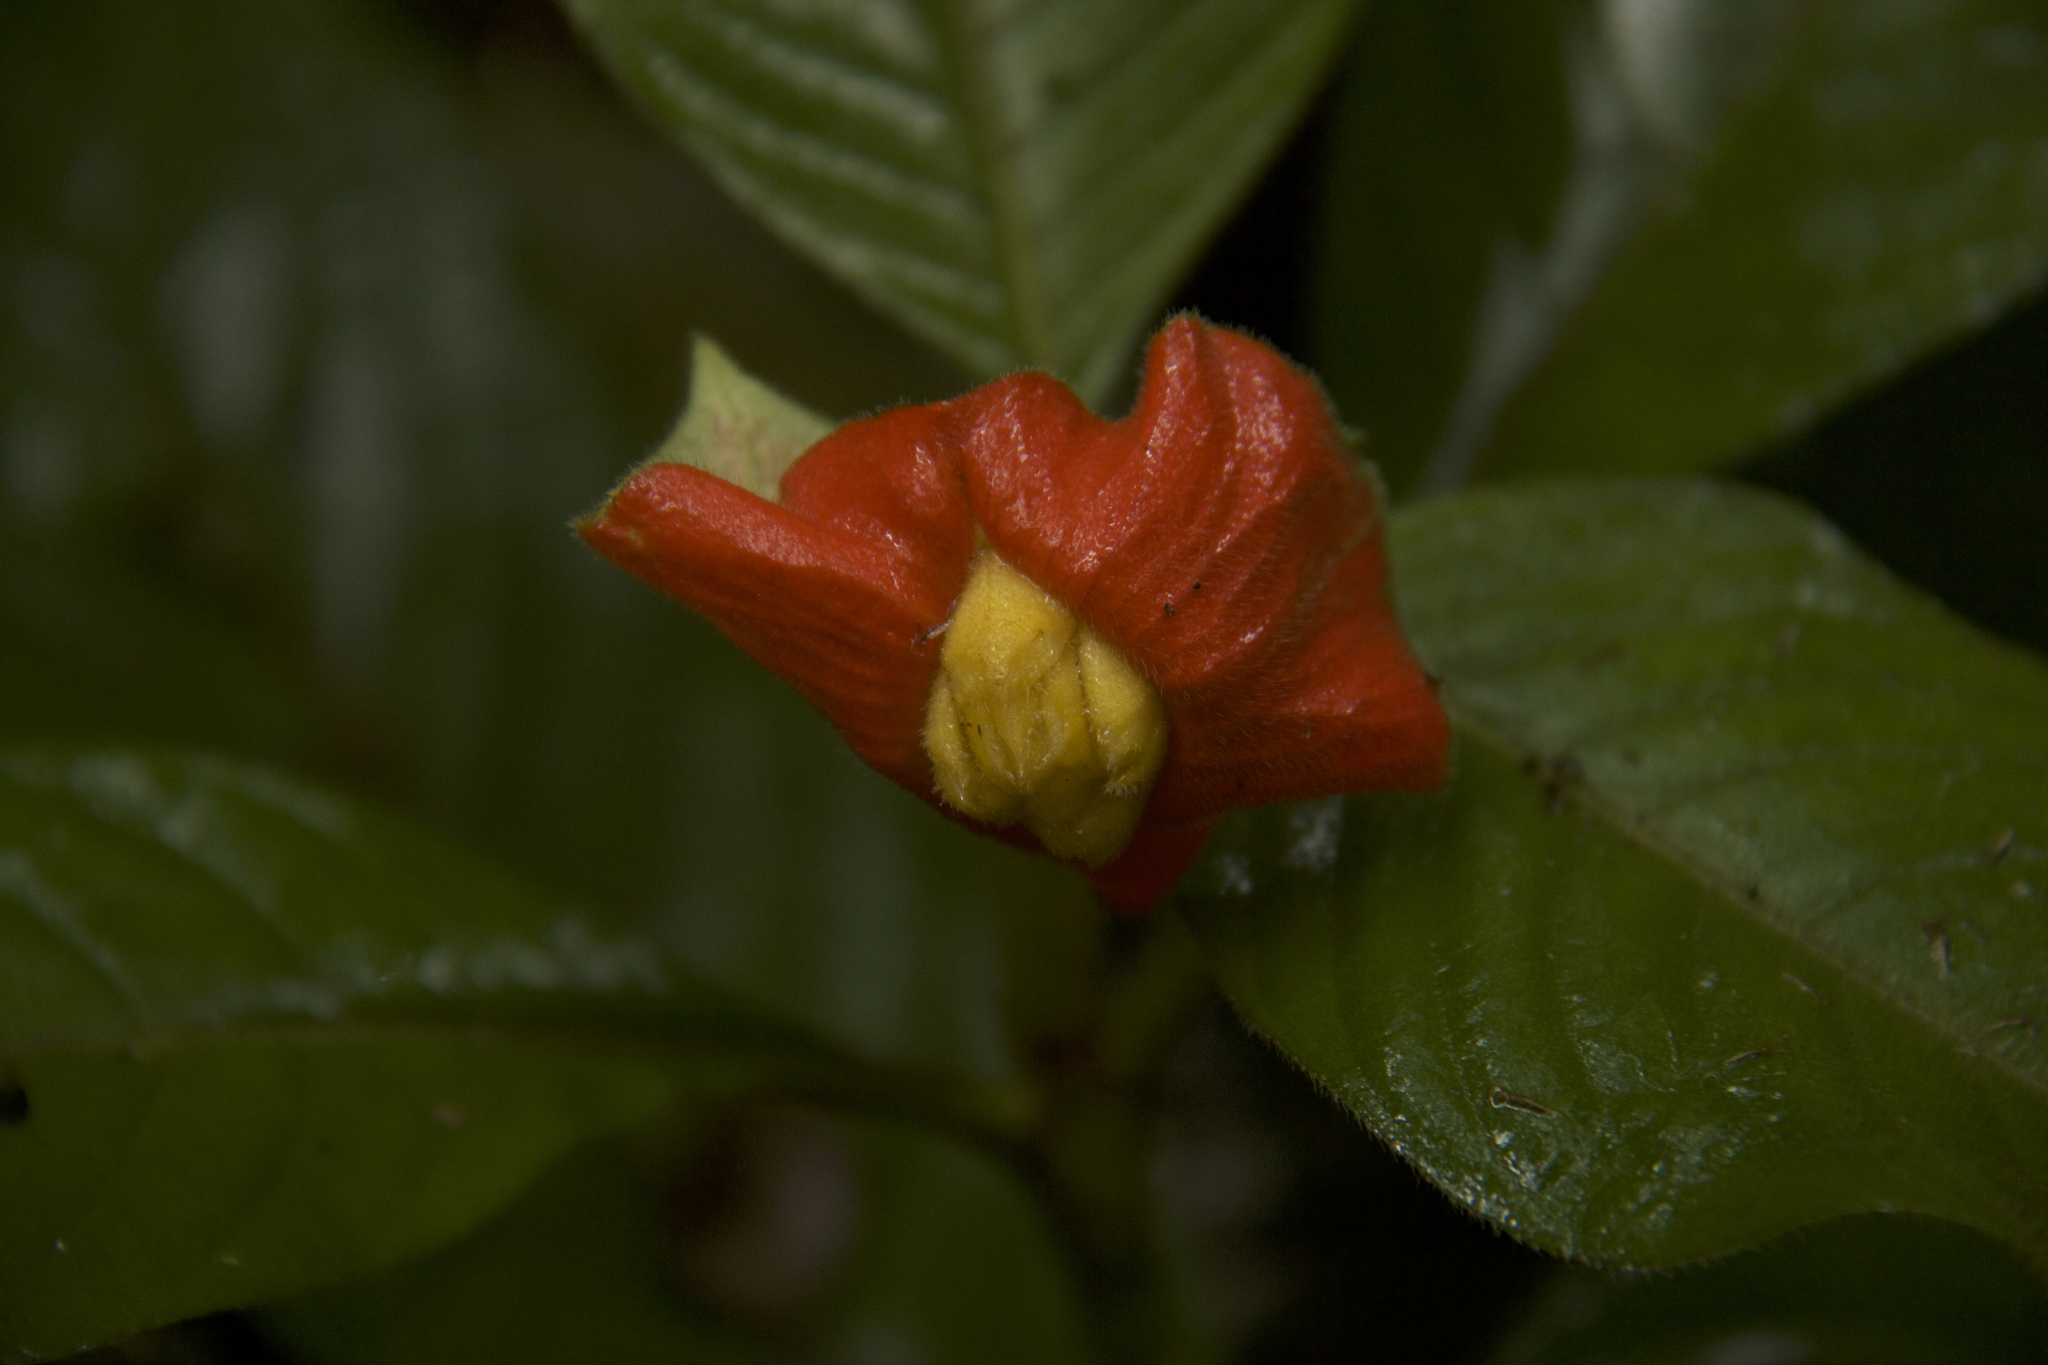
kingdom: Plantae
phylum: Tracheophyta
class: Magnoliopsida
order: Gentianales
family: Rubiaceae
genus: Palicourea
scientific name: Palicourea tomentosa
